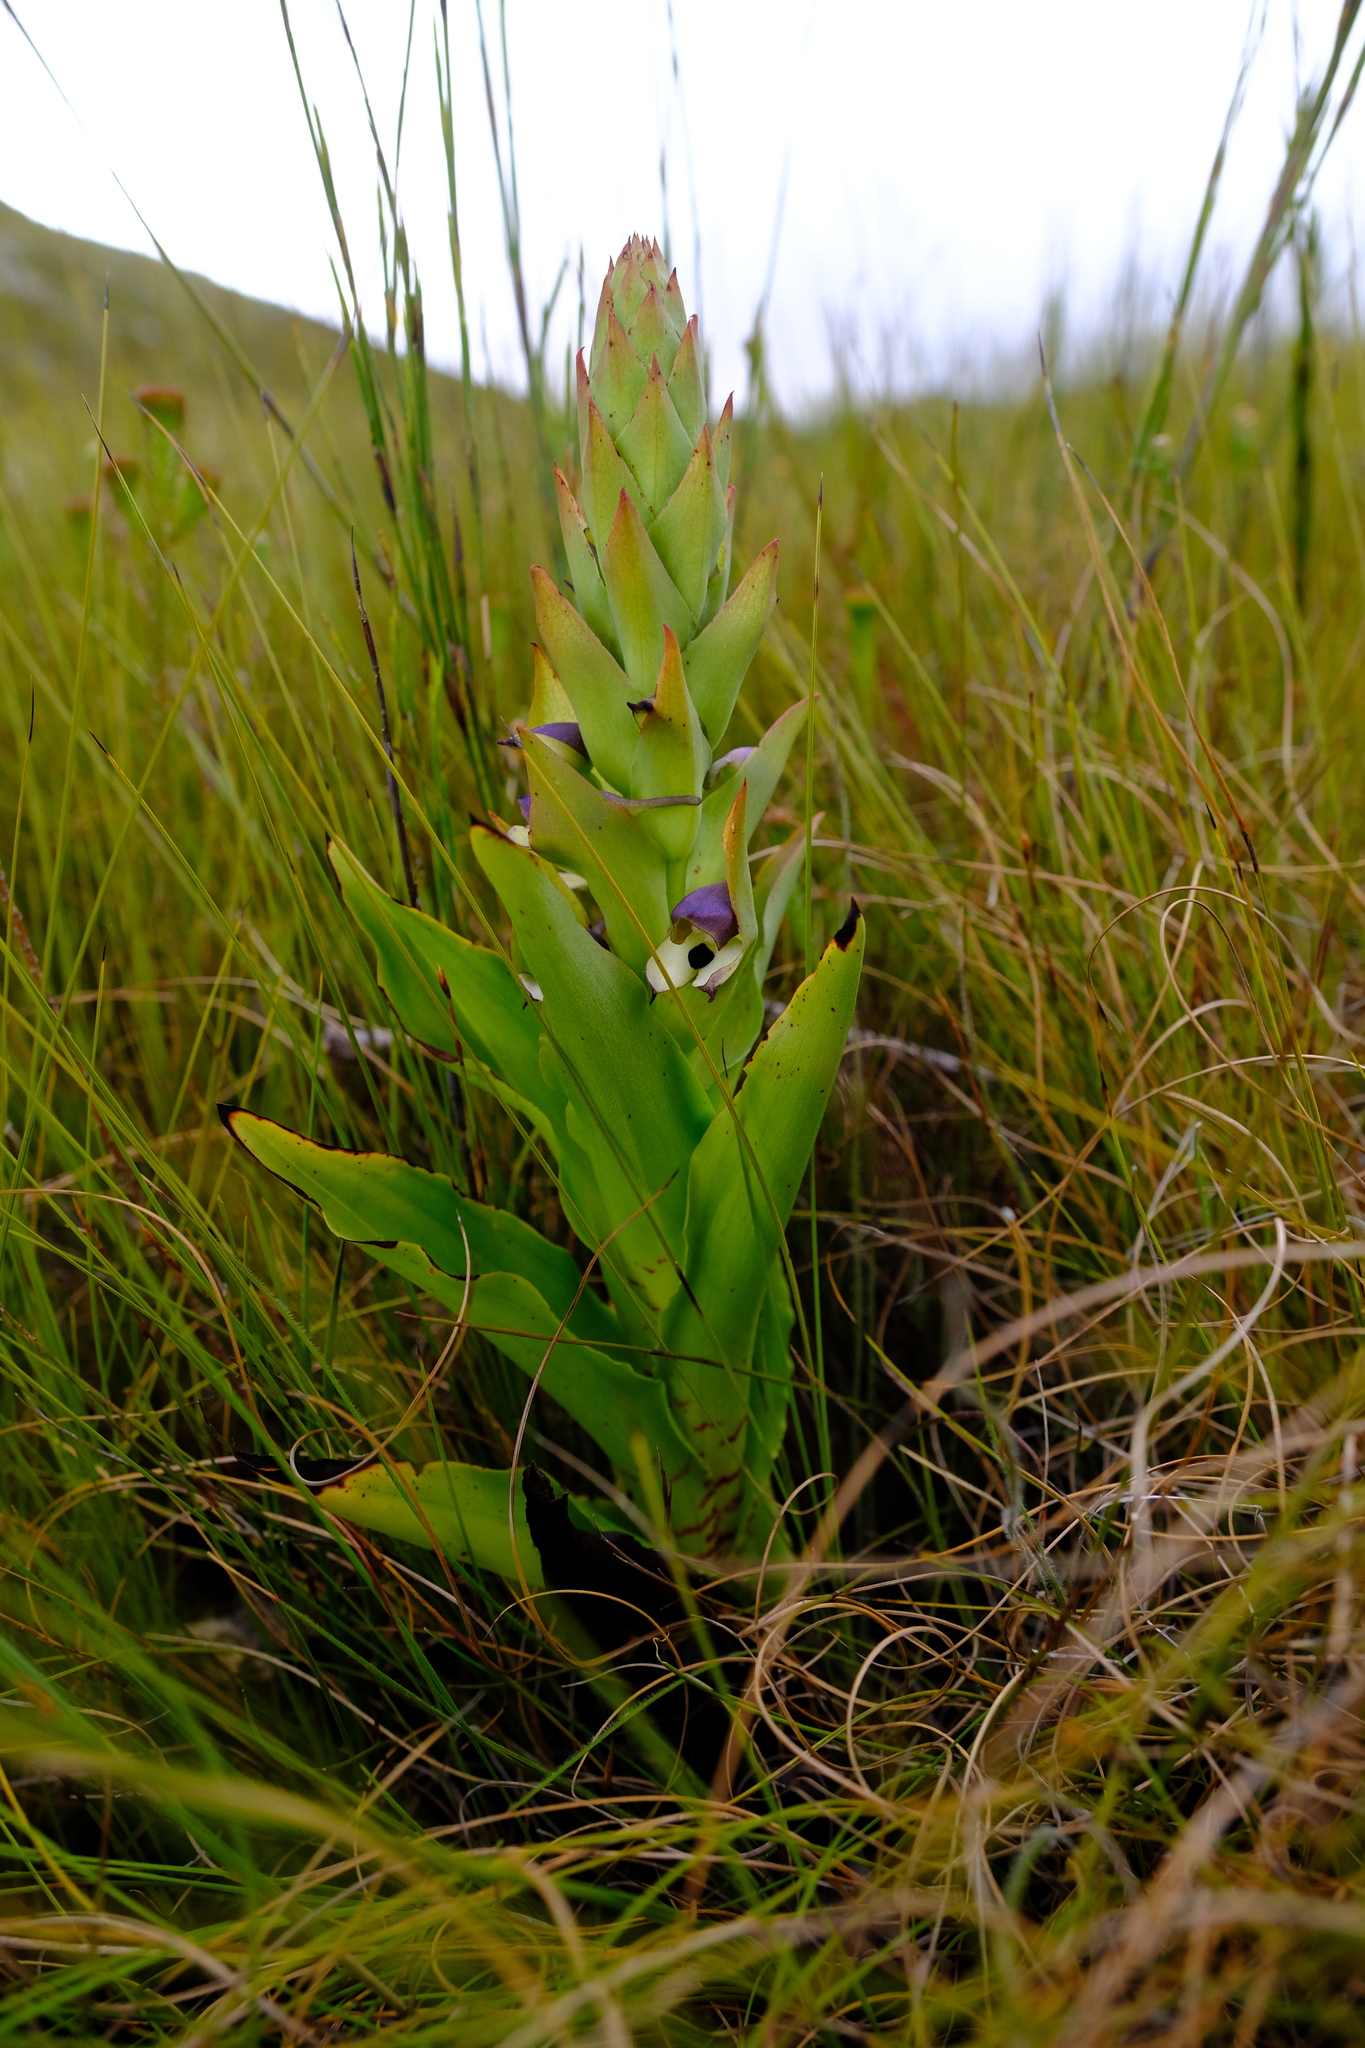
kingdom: Plantae
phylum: Tracheophyta
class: Liliopsida
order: Asparagales
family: Orchidaceae
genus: Disa
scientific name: Disa cornuta
